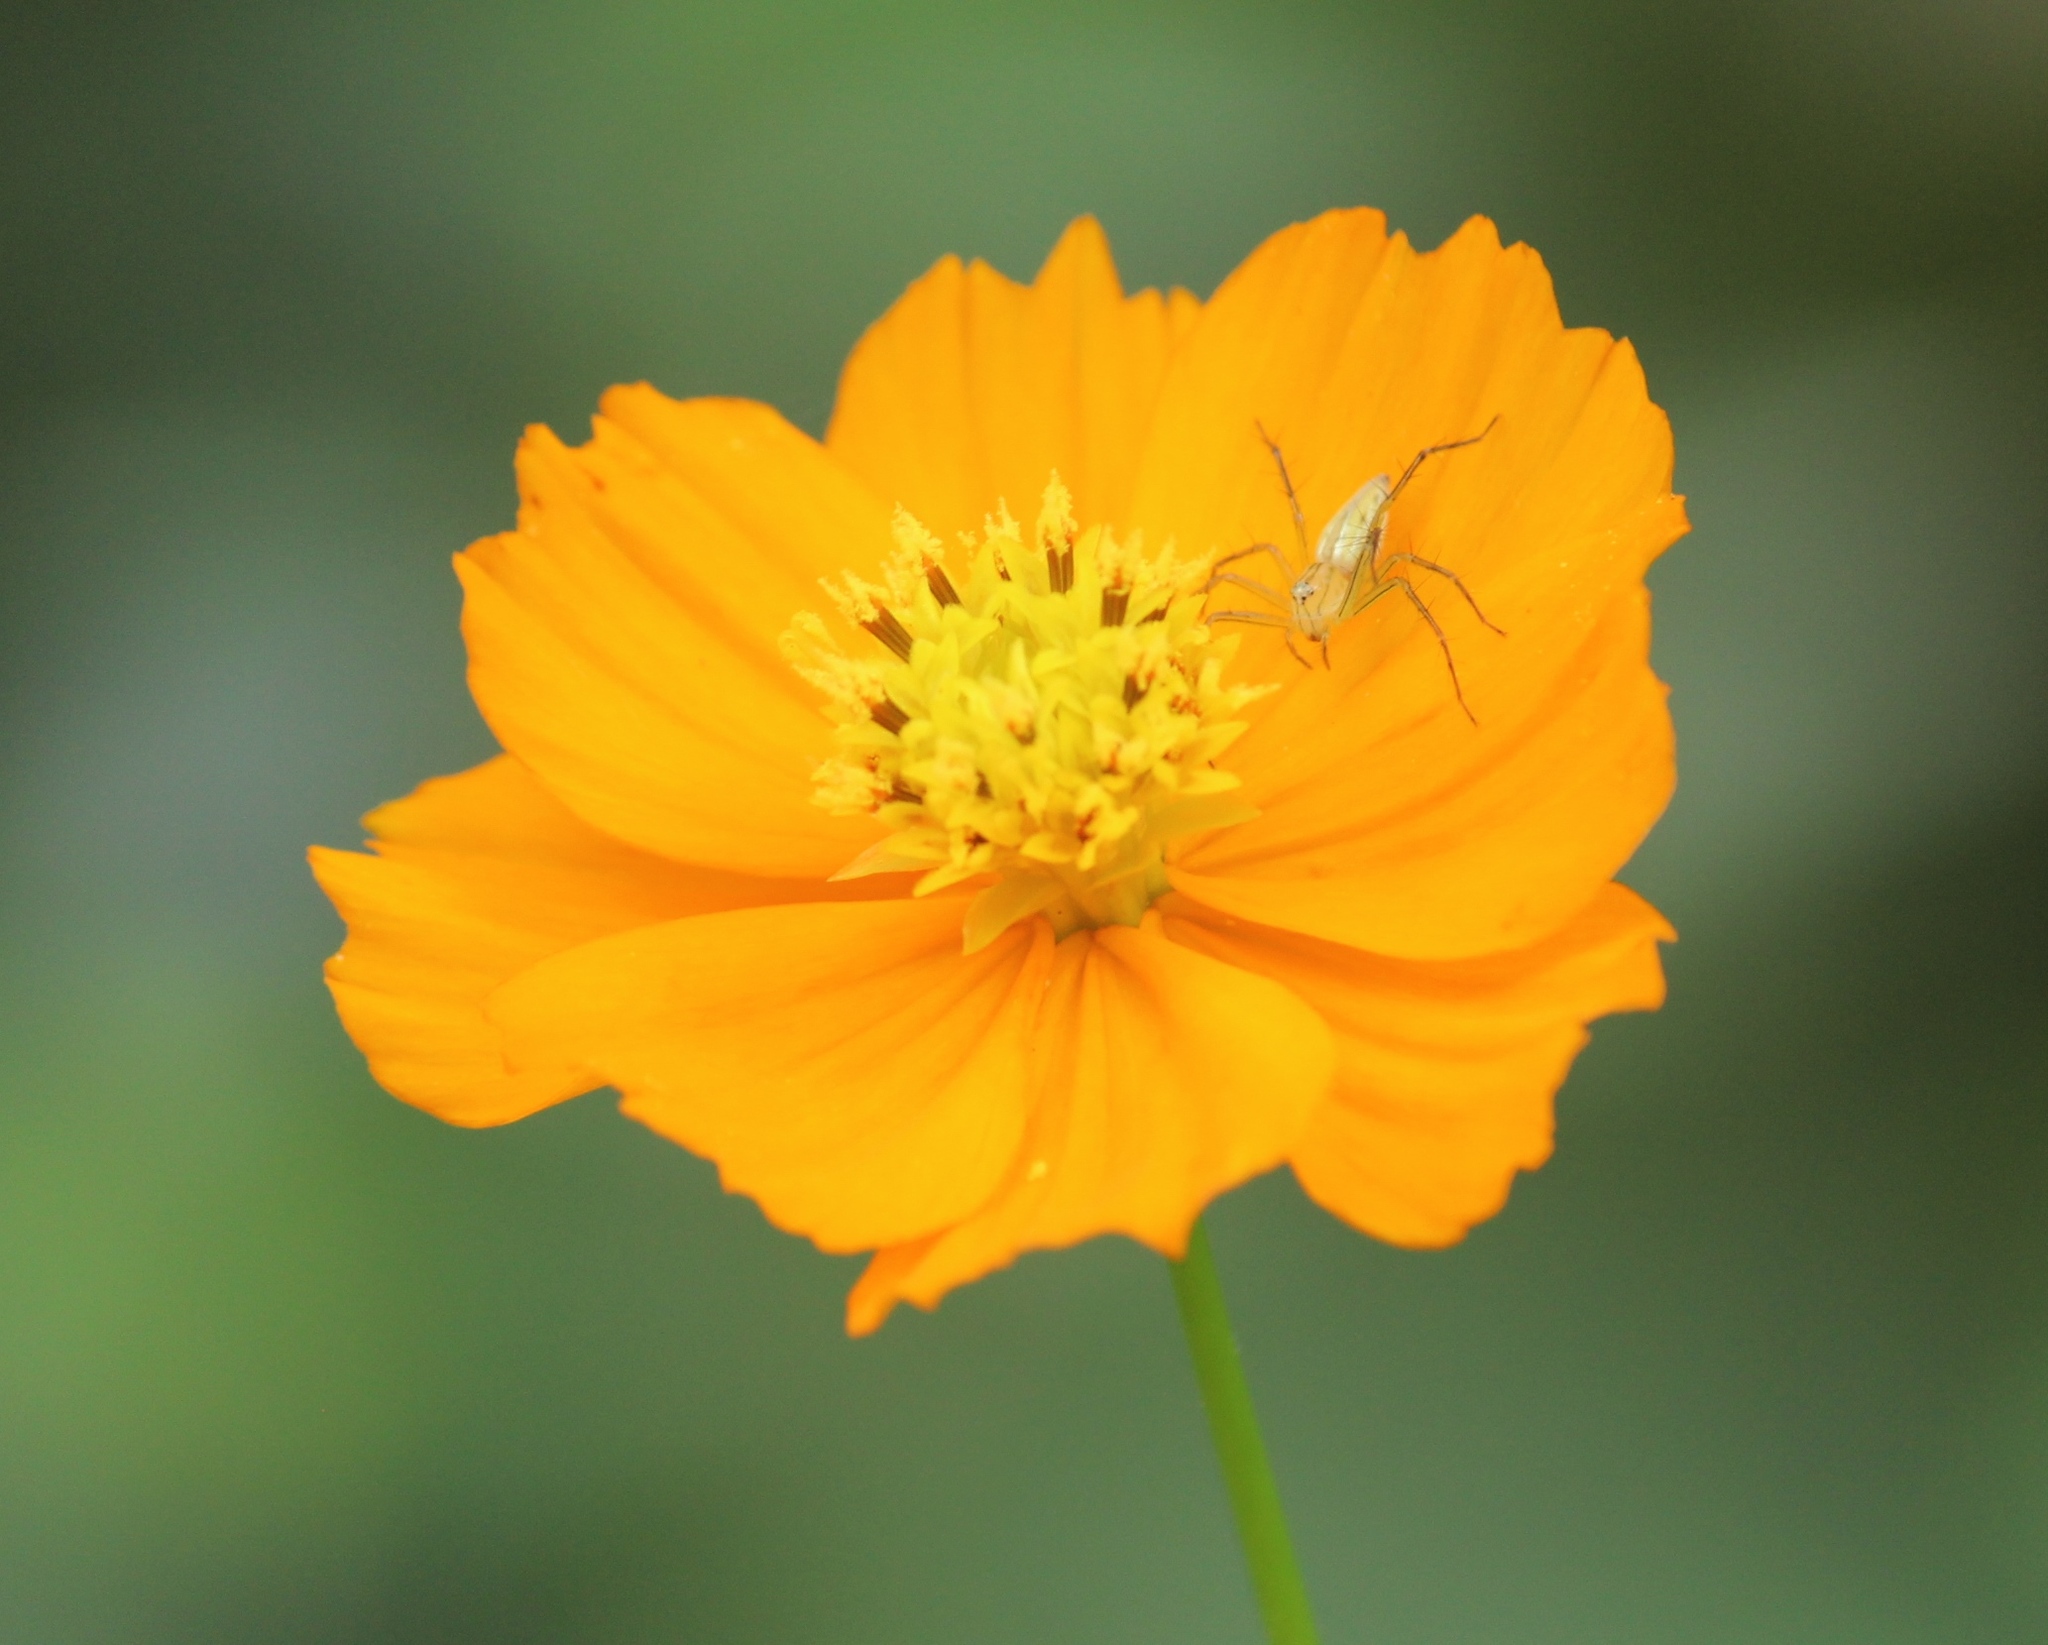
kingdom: Plantae
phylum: Tracheophyta
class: Magnoliopsida
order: Asterales
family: Asteraceae
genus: Cosmos
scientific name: Cosmos sulphureus
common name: Sulphur cosmos
